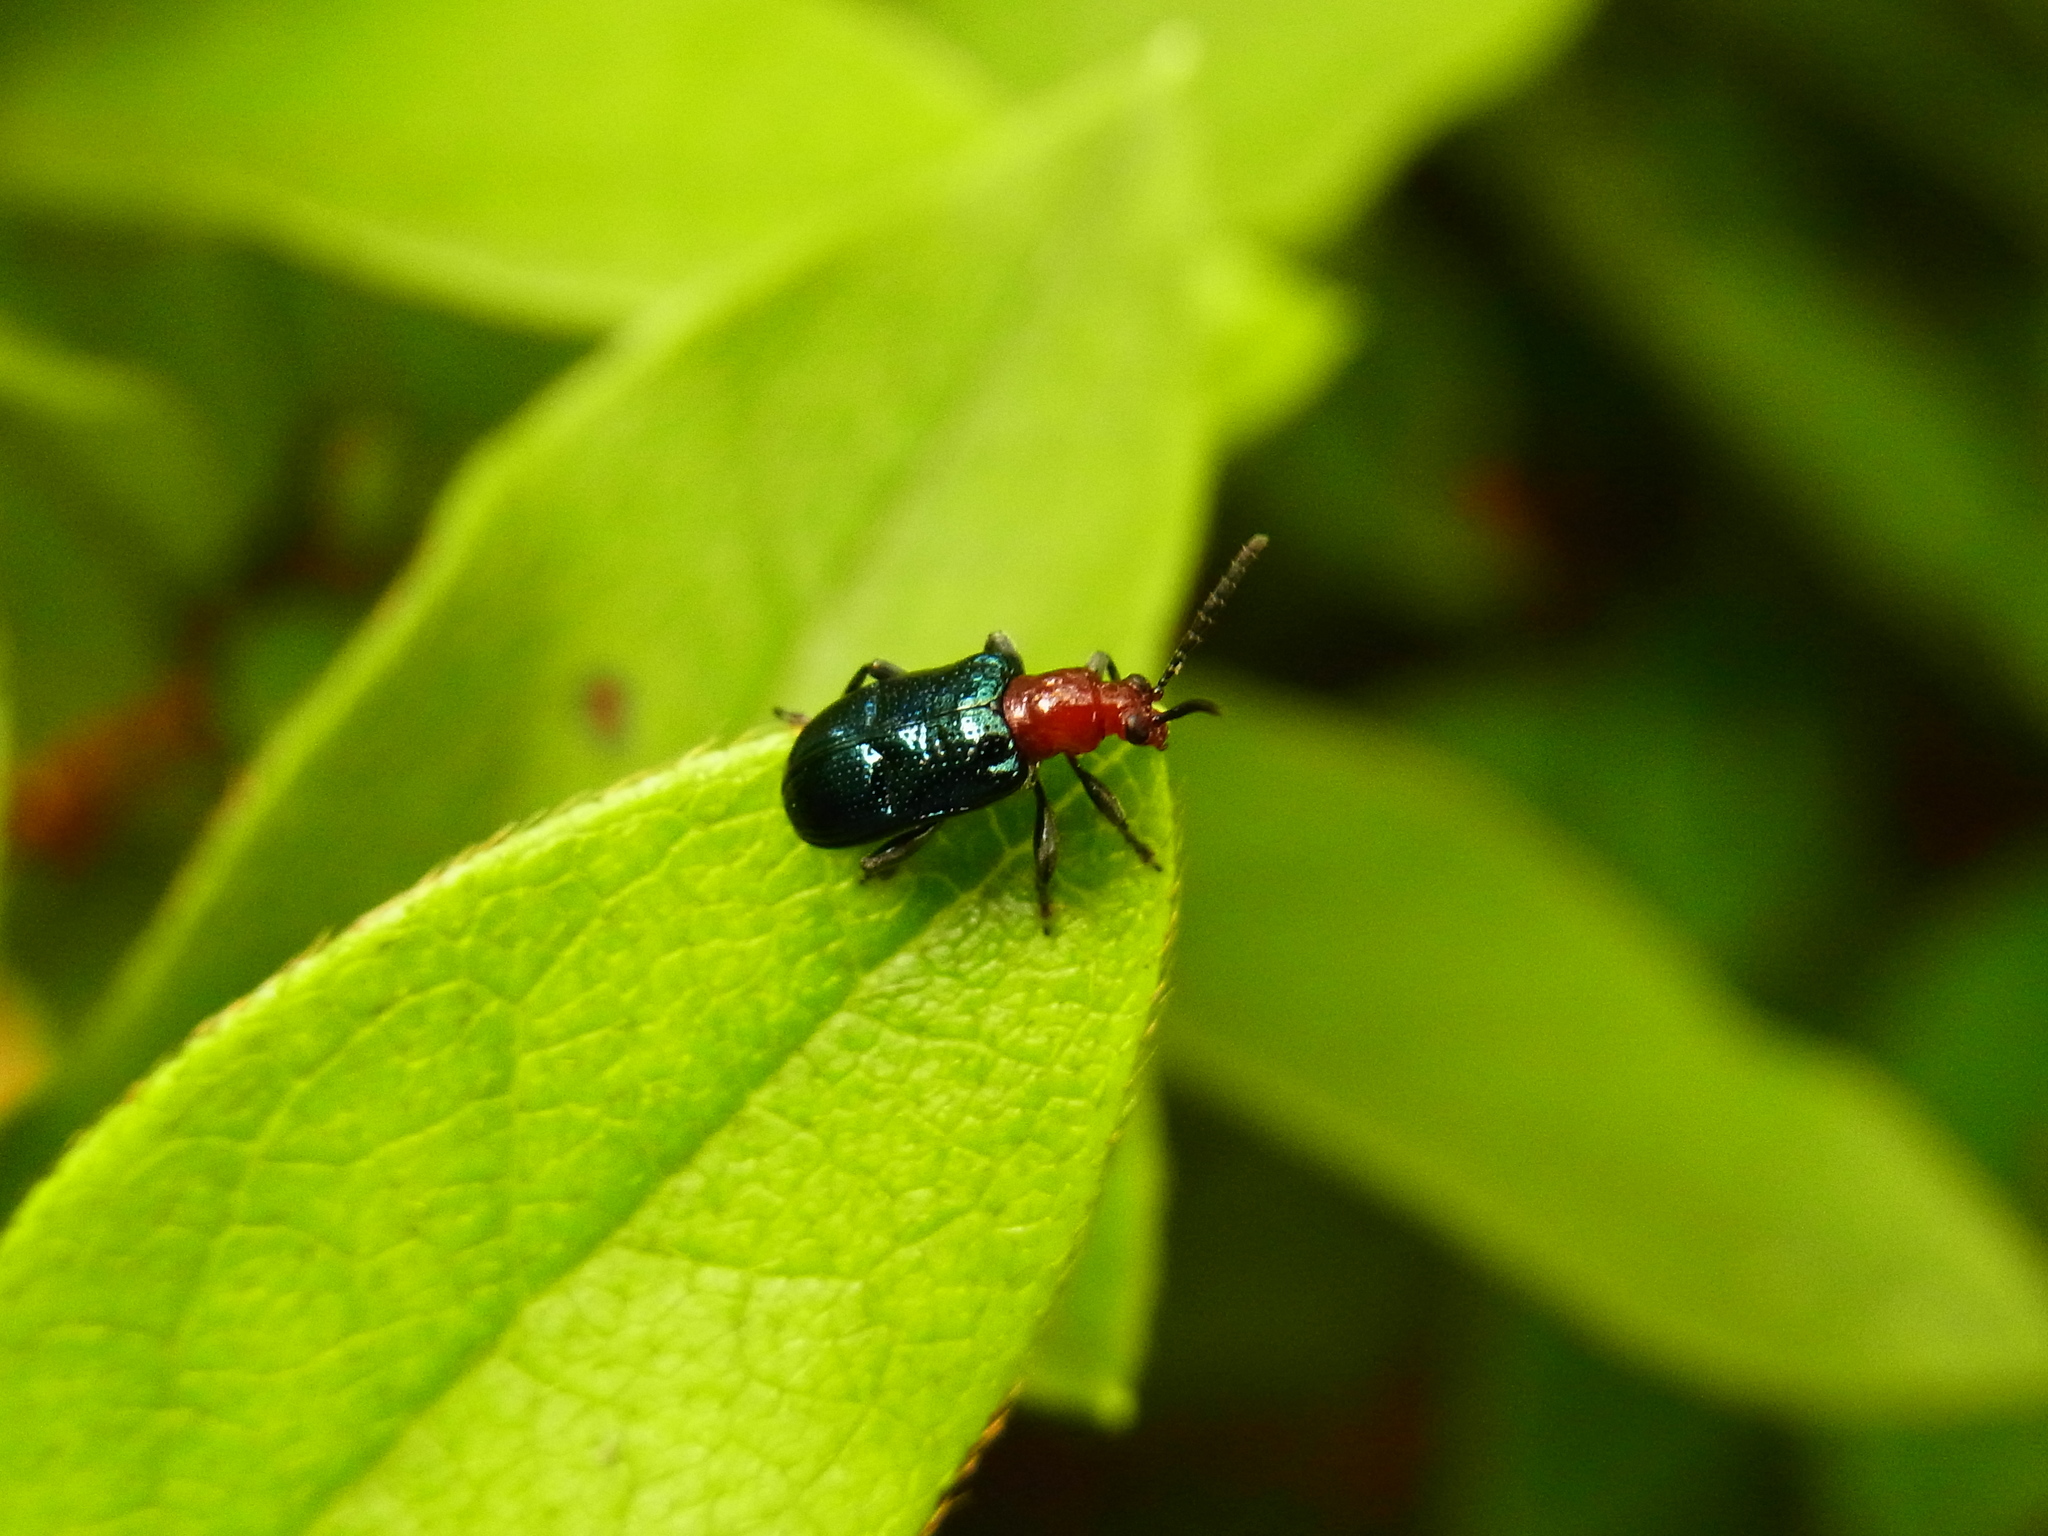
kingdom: Animalia
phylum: Arthropoda
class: Insecta
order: Coleoptera
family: Chrysomelidae
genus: Cyrtonota
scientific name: Cyrtonota honorata
